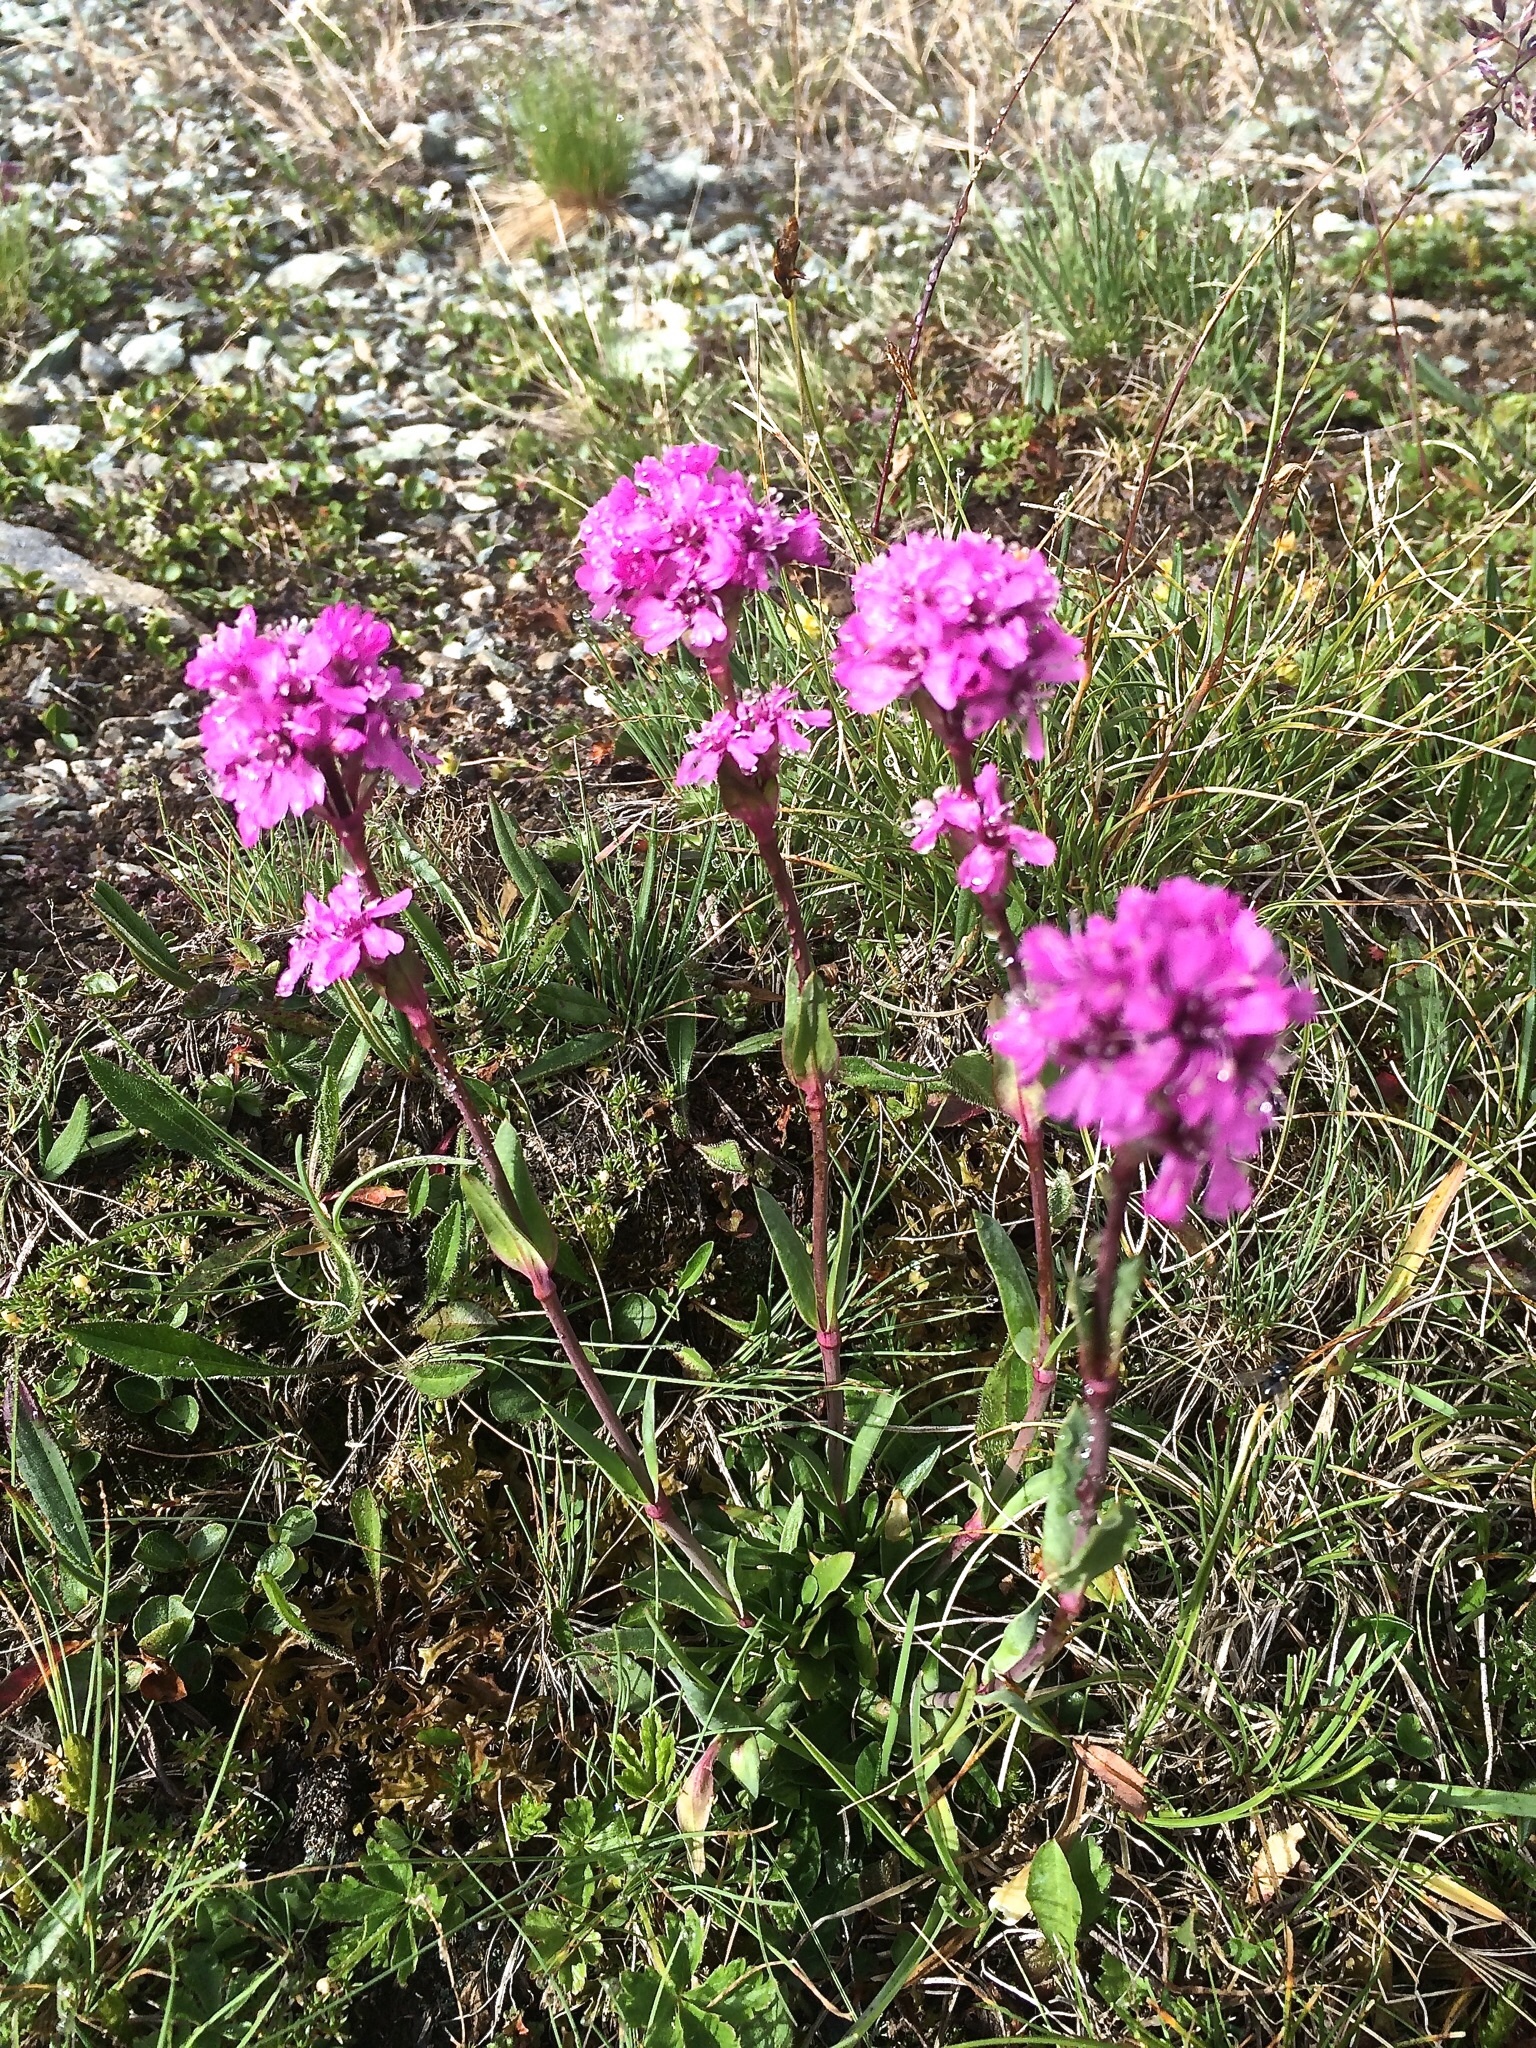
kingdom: Plantae
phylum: Tracheophyta
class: Magnoliopsida
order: Caryophyllales
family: Caryophyllaceae
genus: Viscaria
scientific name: Viscaria alpina
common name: Alpine campion
